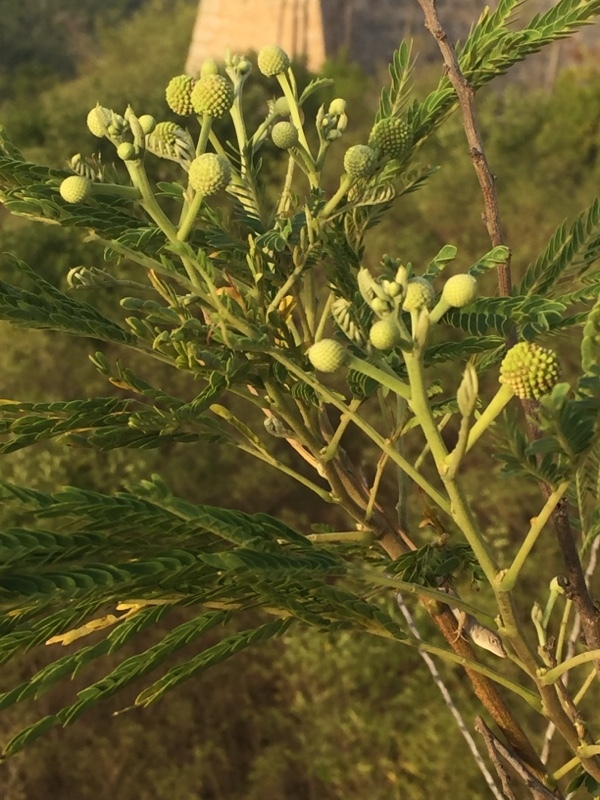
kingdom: Plantae
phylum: Tracheophyta
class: Magnoliopsida
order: Fabales
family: Fabaceae
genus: Leucaena
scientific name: Leucaena leucocephala
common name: White leadtree
